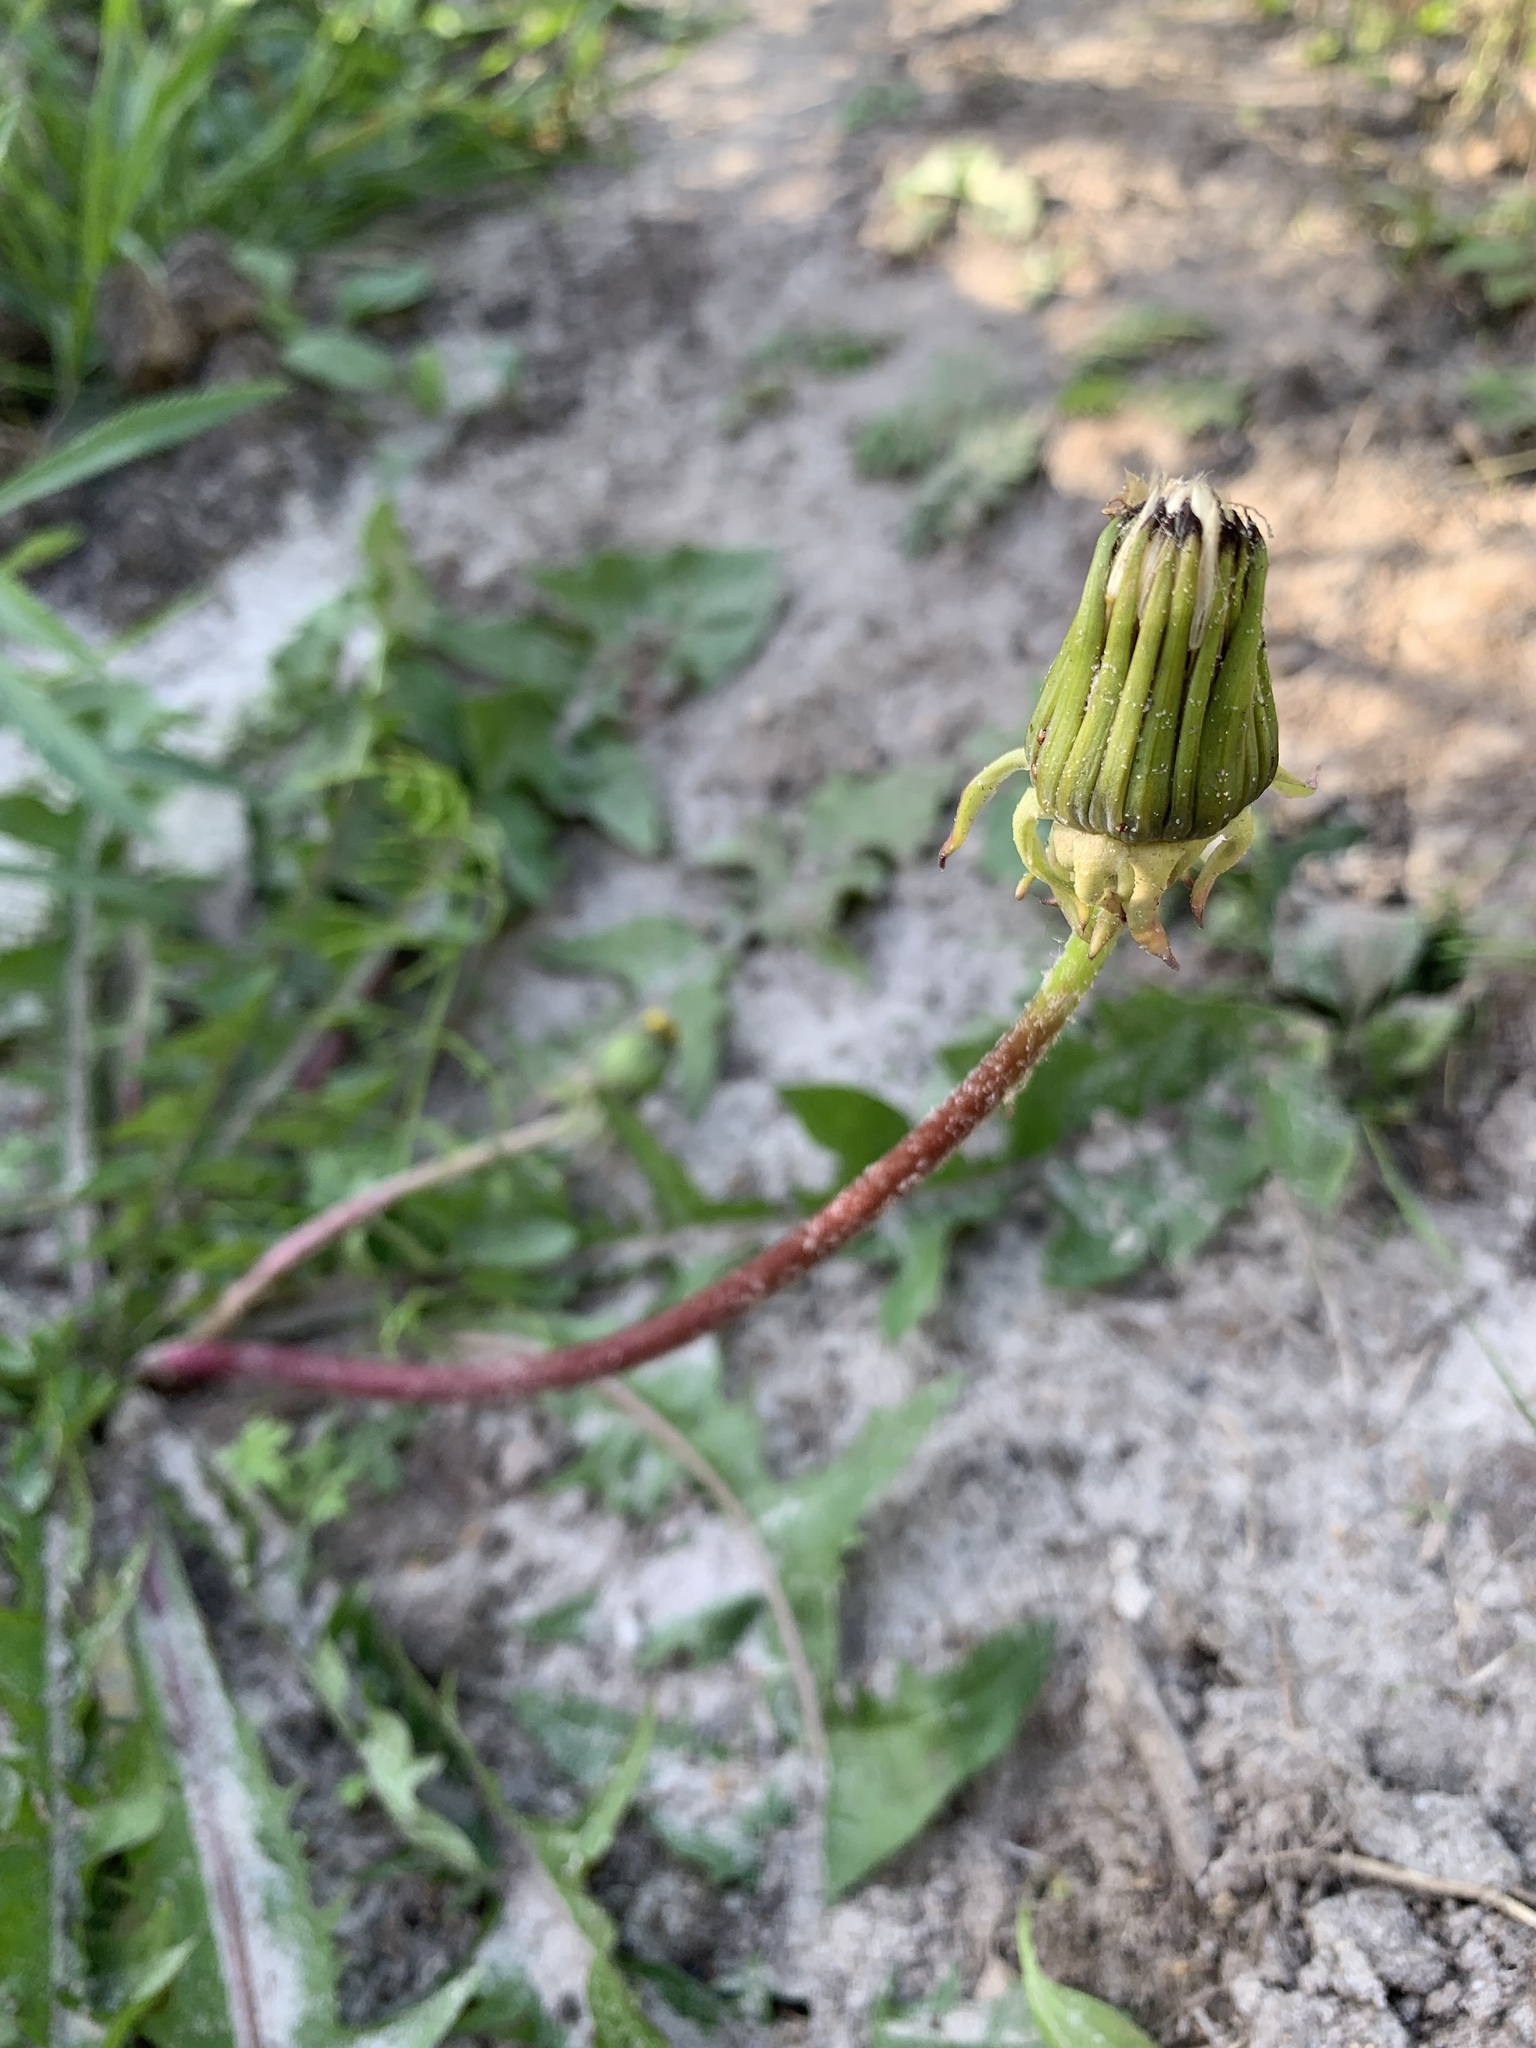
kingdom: Plantae
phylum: Tracheophyta
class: Magnoliopsida
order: Asterales
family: Asteraceae
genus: Taraxacum
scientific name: Taraxacum officinale
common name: Common dandelion
